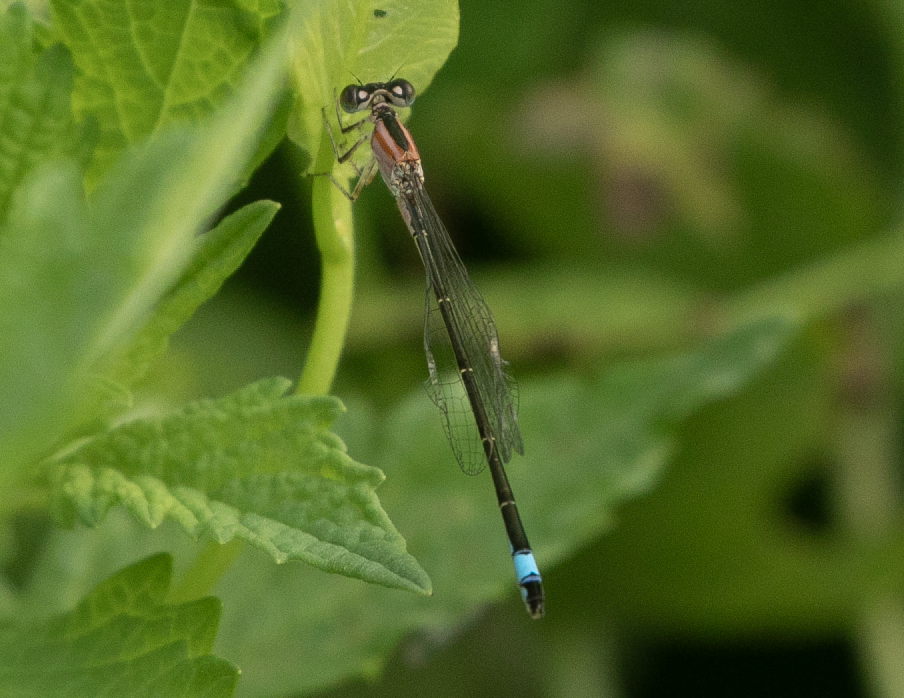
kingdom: Animalia
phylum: Arthropoda
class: Insecta
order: Odonata
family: Coenagrionidae
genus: Ischnura
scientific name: Ischnura elegans
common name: Blue-tailed damselfly
